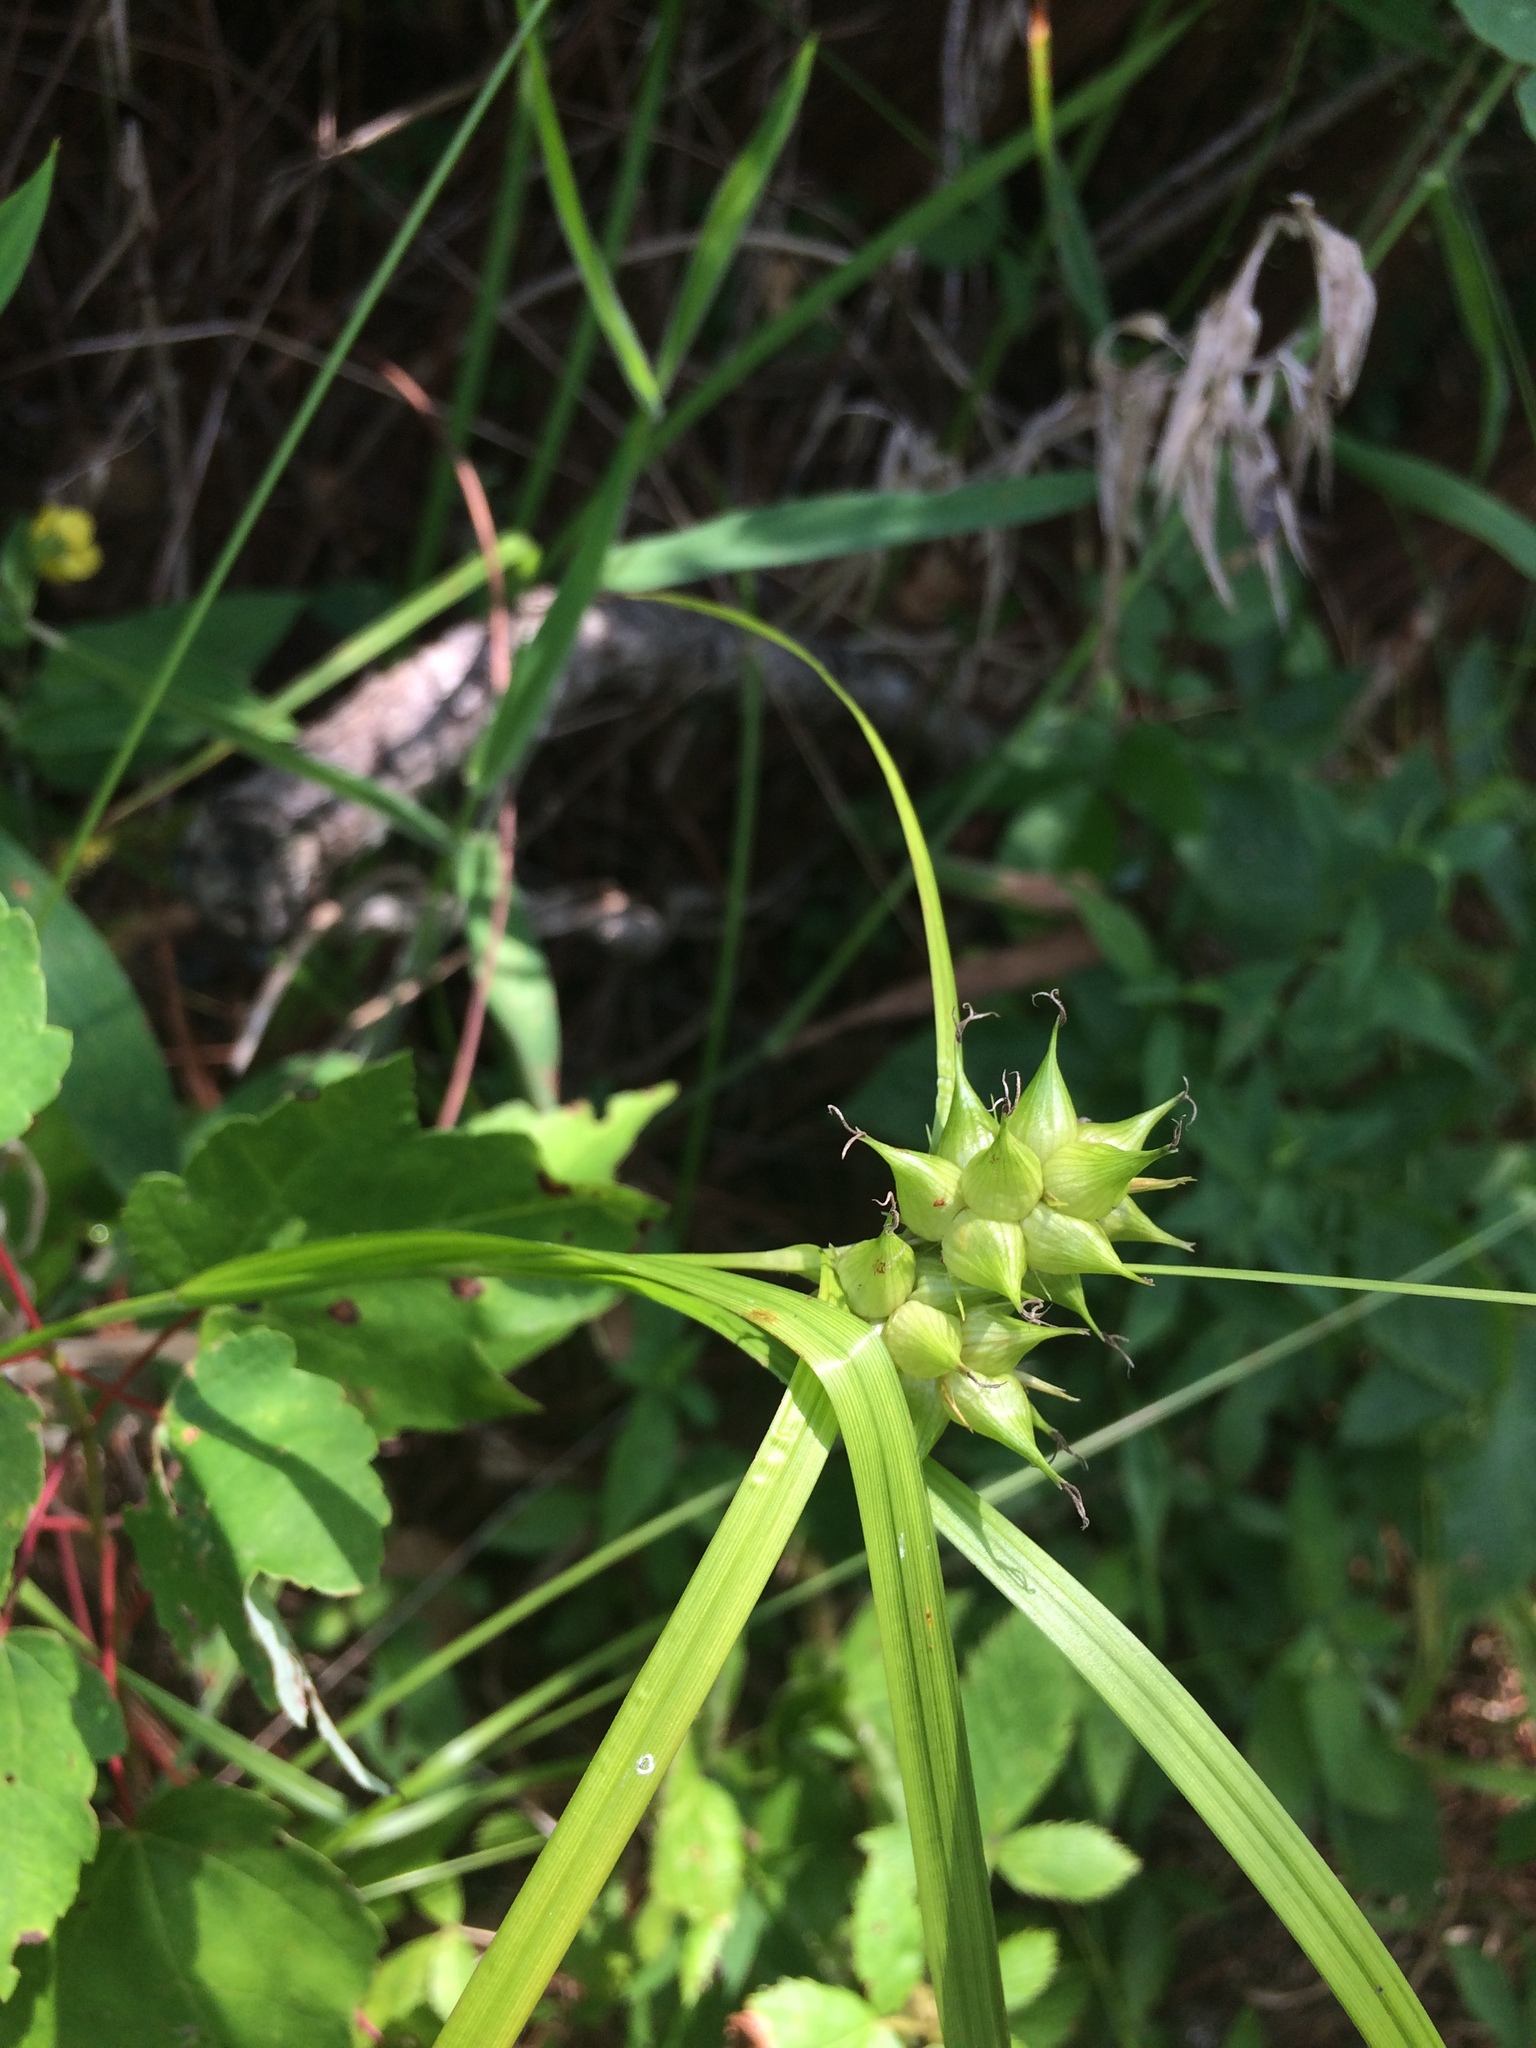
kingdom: Plantae
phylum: Tracheophyta
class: Liliopsida
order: Poales
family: Cyperaceae
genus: Carex
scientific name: Carex intumescens
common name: Greater bladder sedge
